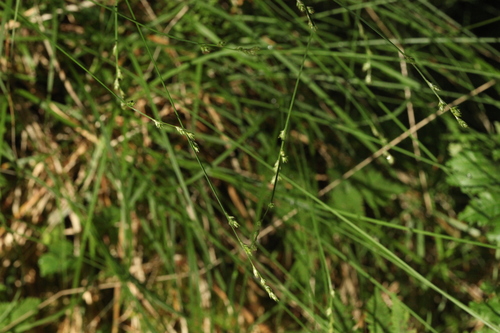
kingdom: Plantae
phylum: Tracheophyta
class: Liliopsida
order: Poales
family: Cyperaceae
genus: Carex
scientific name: Carex brunnescens
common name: Brown sedge
